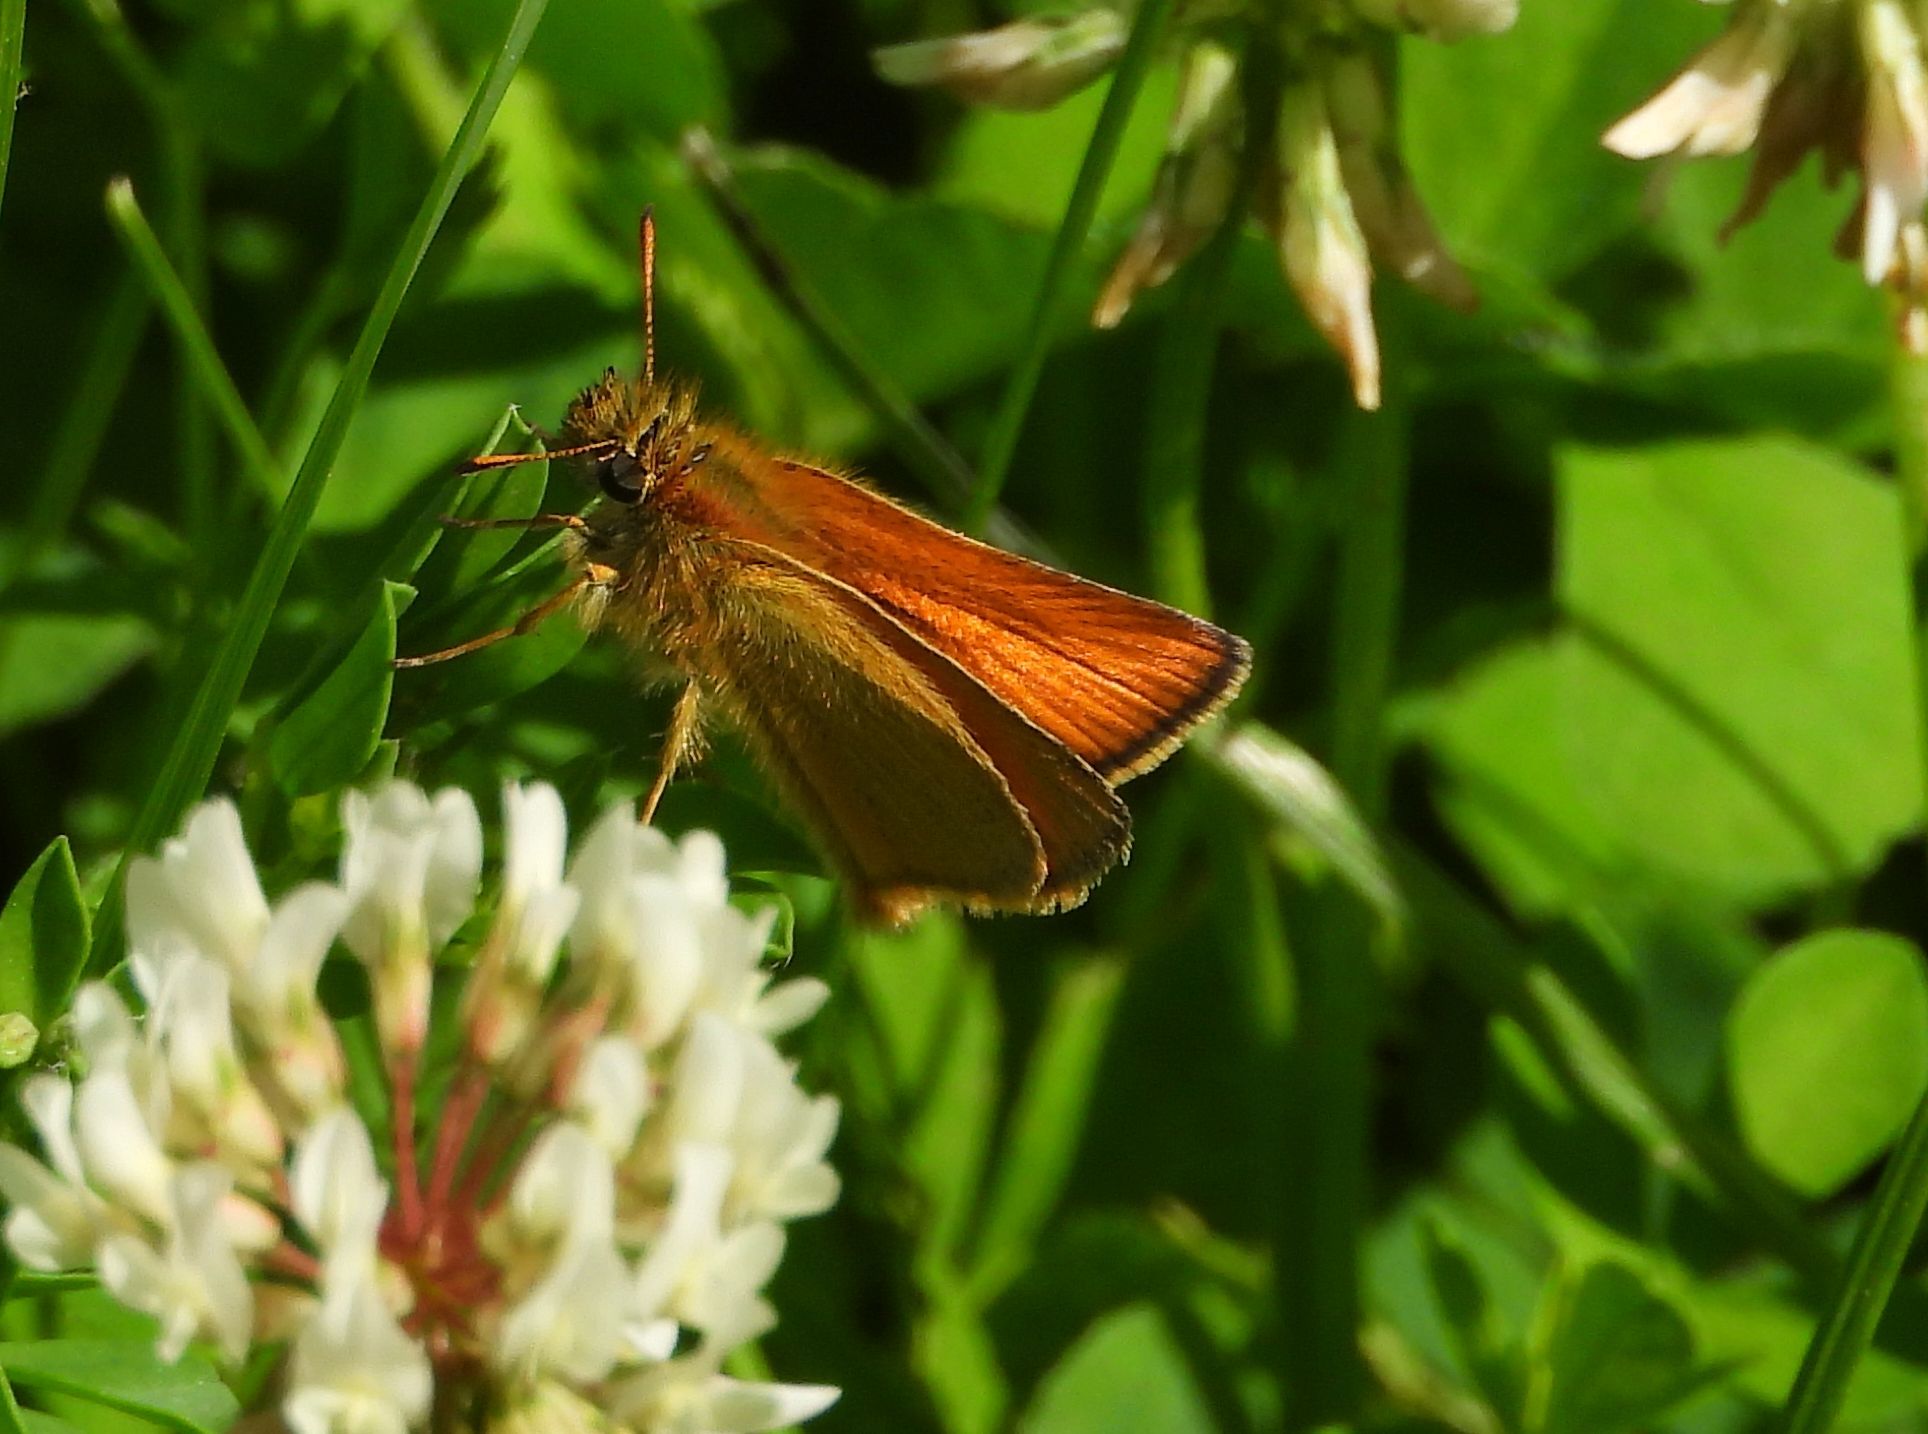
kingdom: Animalia
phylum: Arthropoda
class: Insecta
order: Lepidoptera
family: Hesperiidae
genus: Thymelicus
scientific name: Thymelicus lineola
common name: Essex skipper
